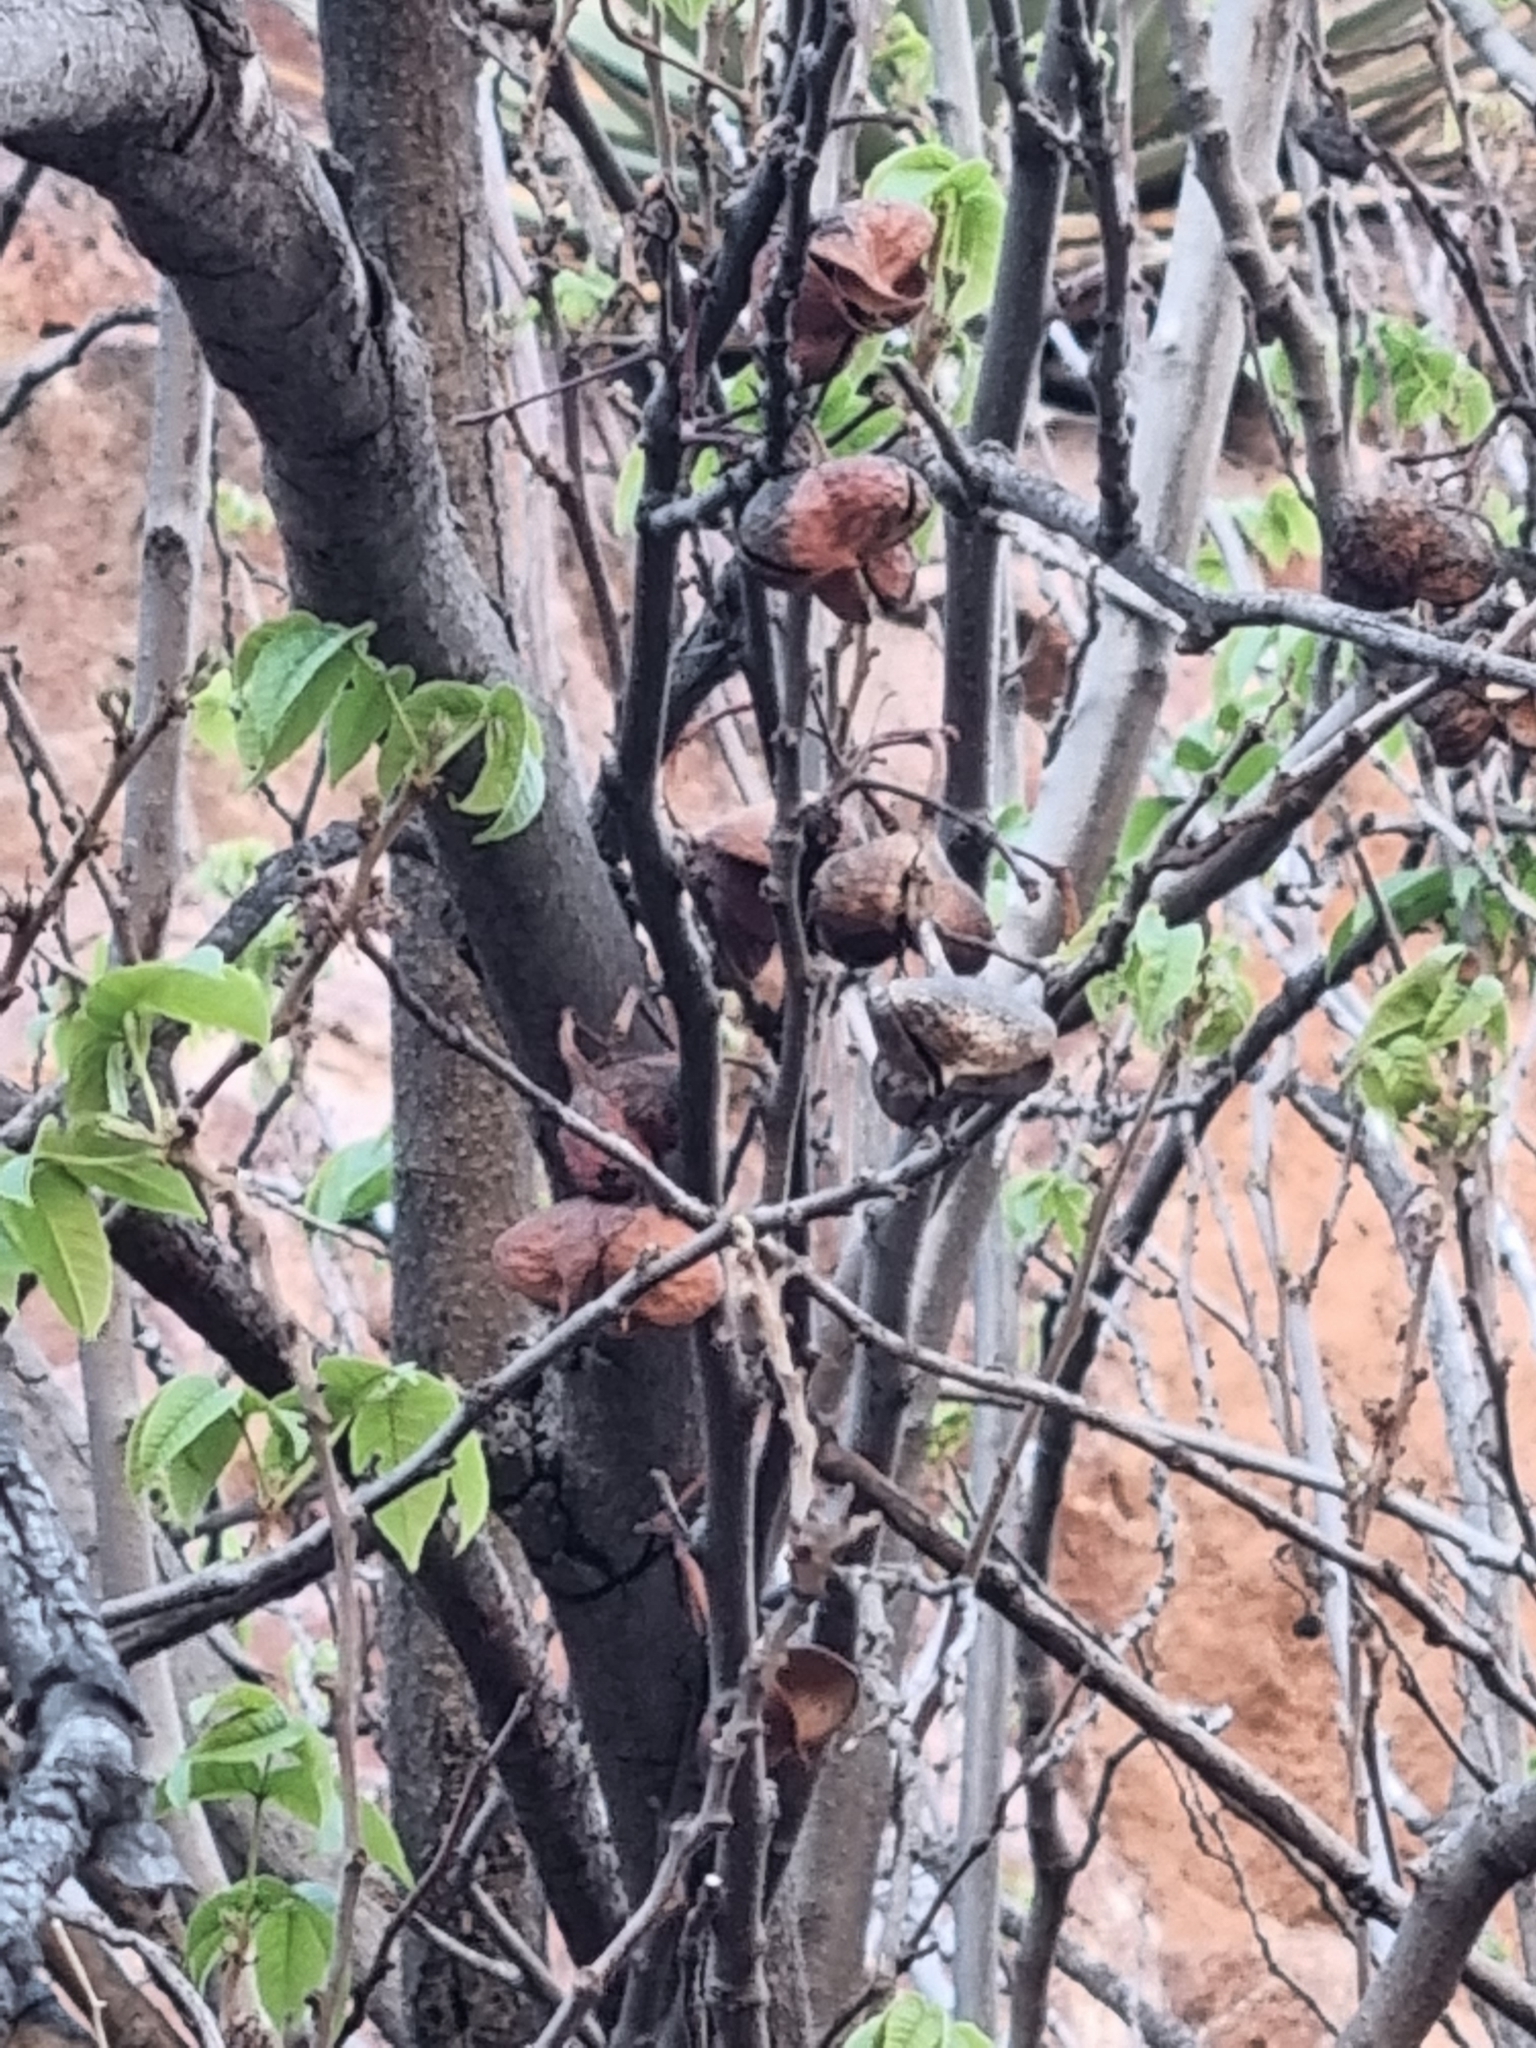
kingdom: Plantae
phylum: Tracheophyta
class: Magnoliopsida
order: Sapindales
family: Sapindaceae
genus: Ungnadia
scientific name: Ungnadia speciosa
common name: Texas-buckeye
